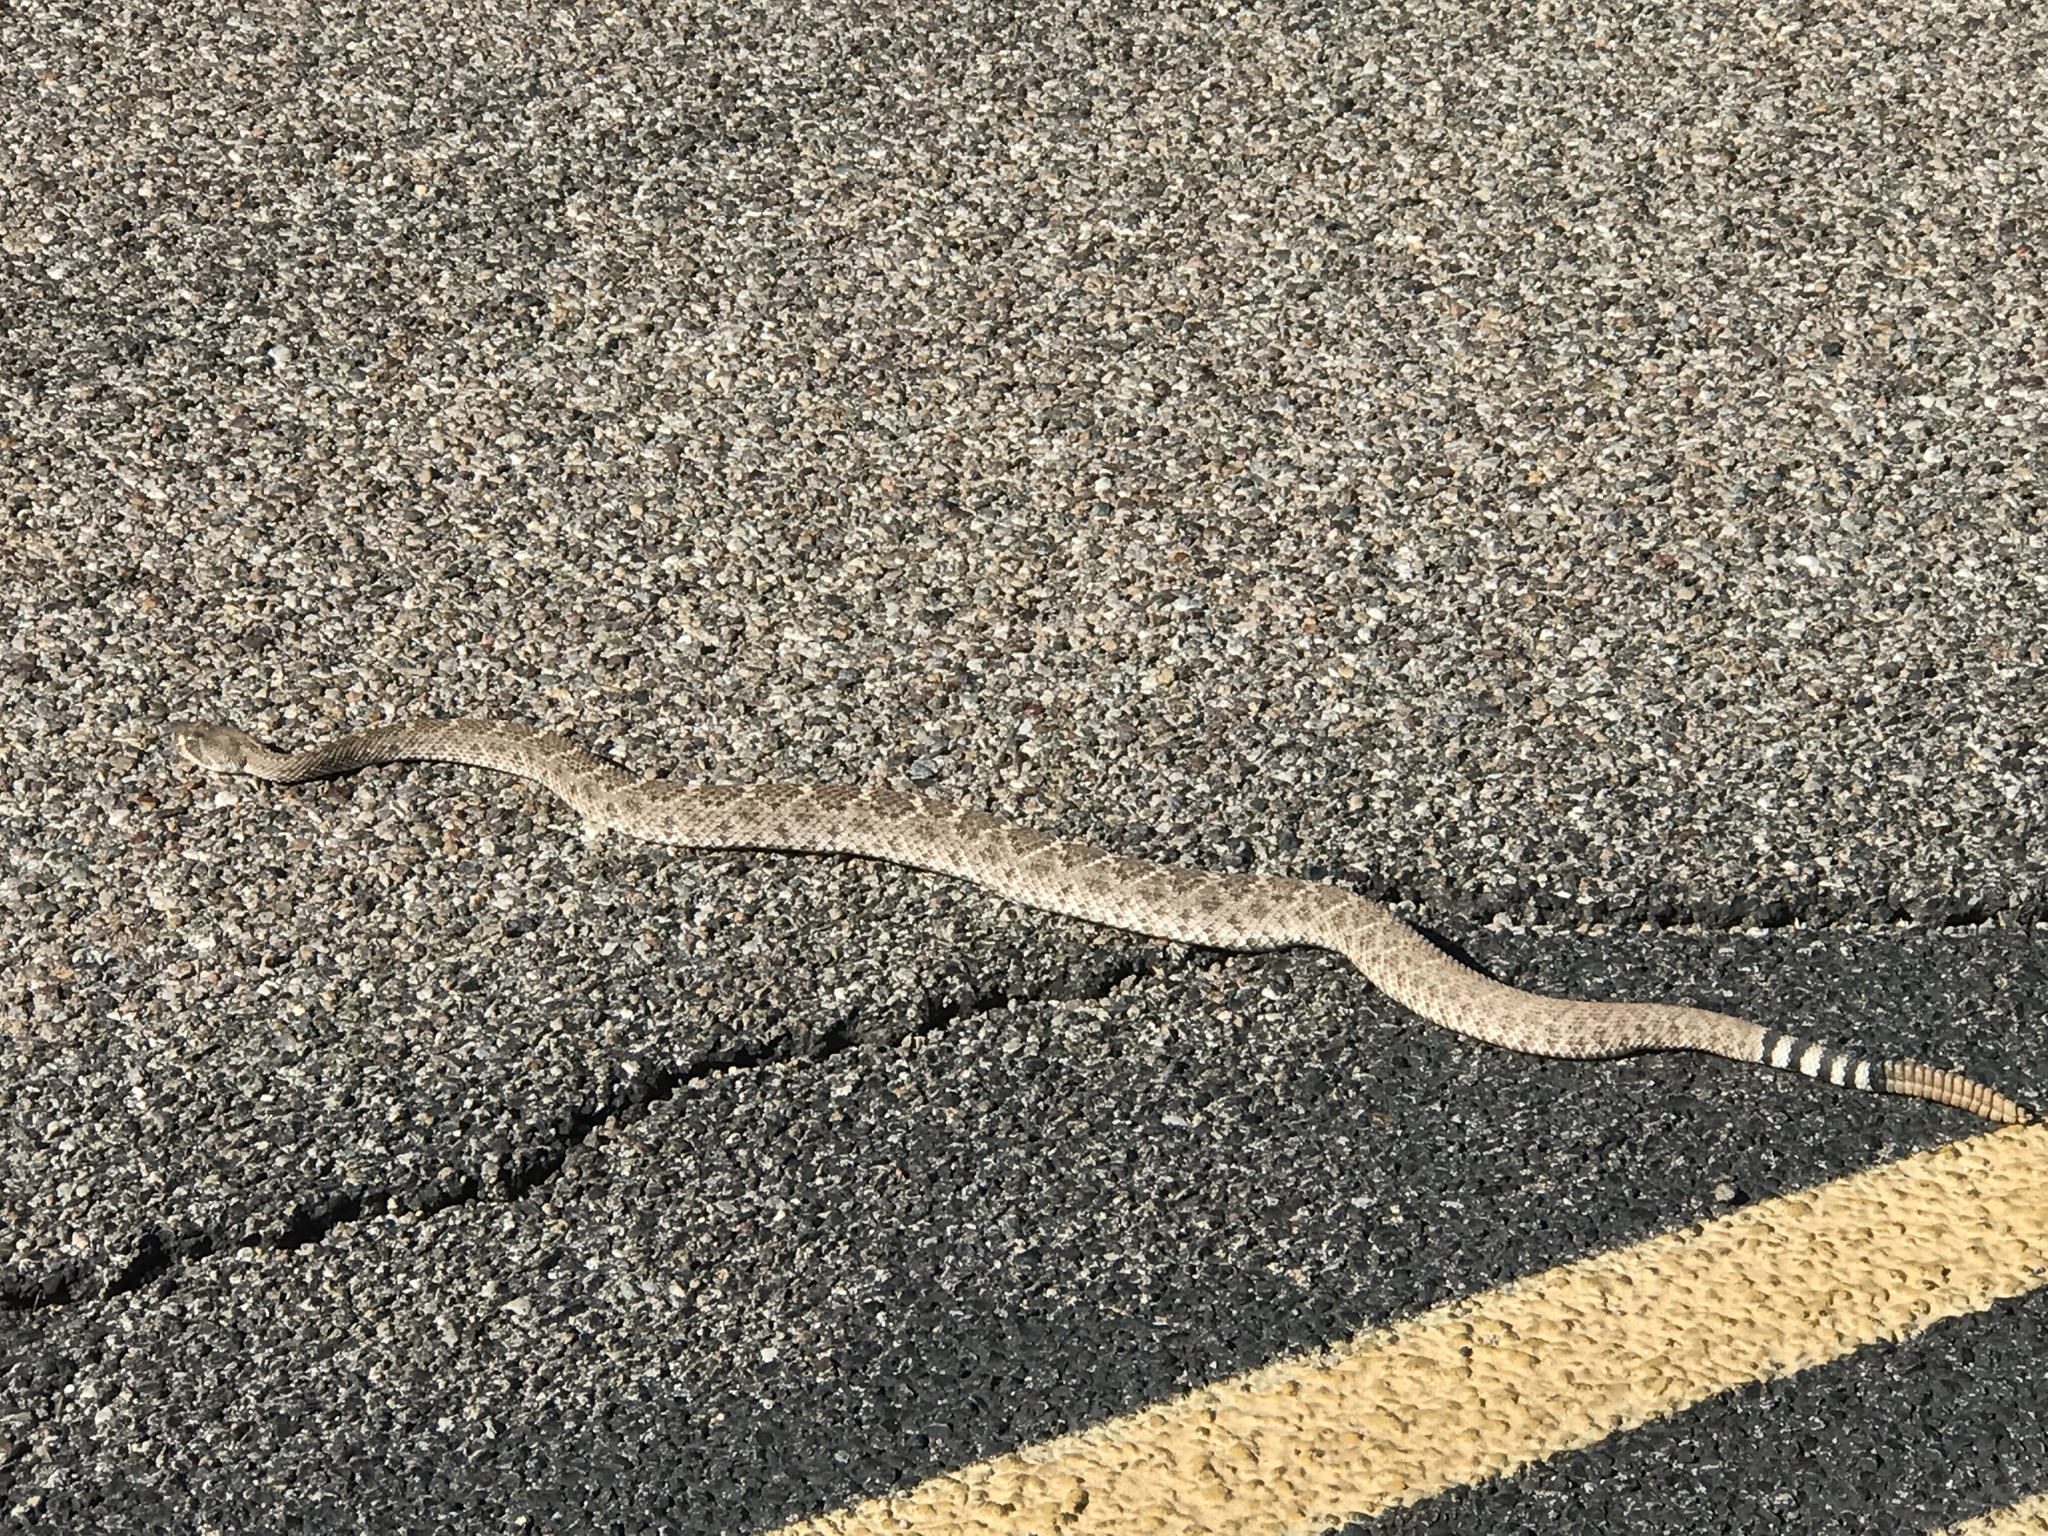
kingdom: Animalia
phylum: Chordata
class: Squamata
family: Viperidae
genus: Crotalus
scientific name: Crotalus atrox
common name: Western diamond-backed rattlesnake
